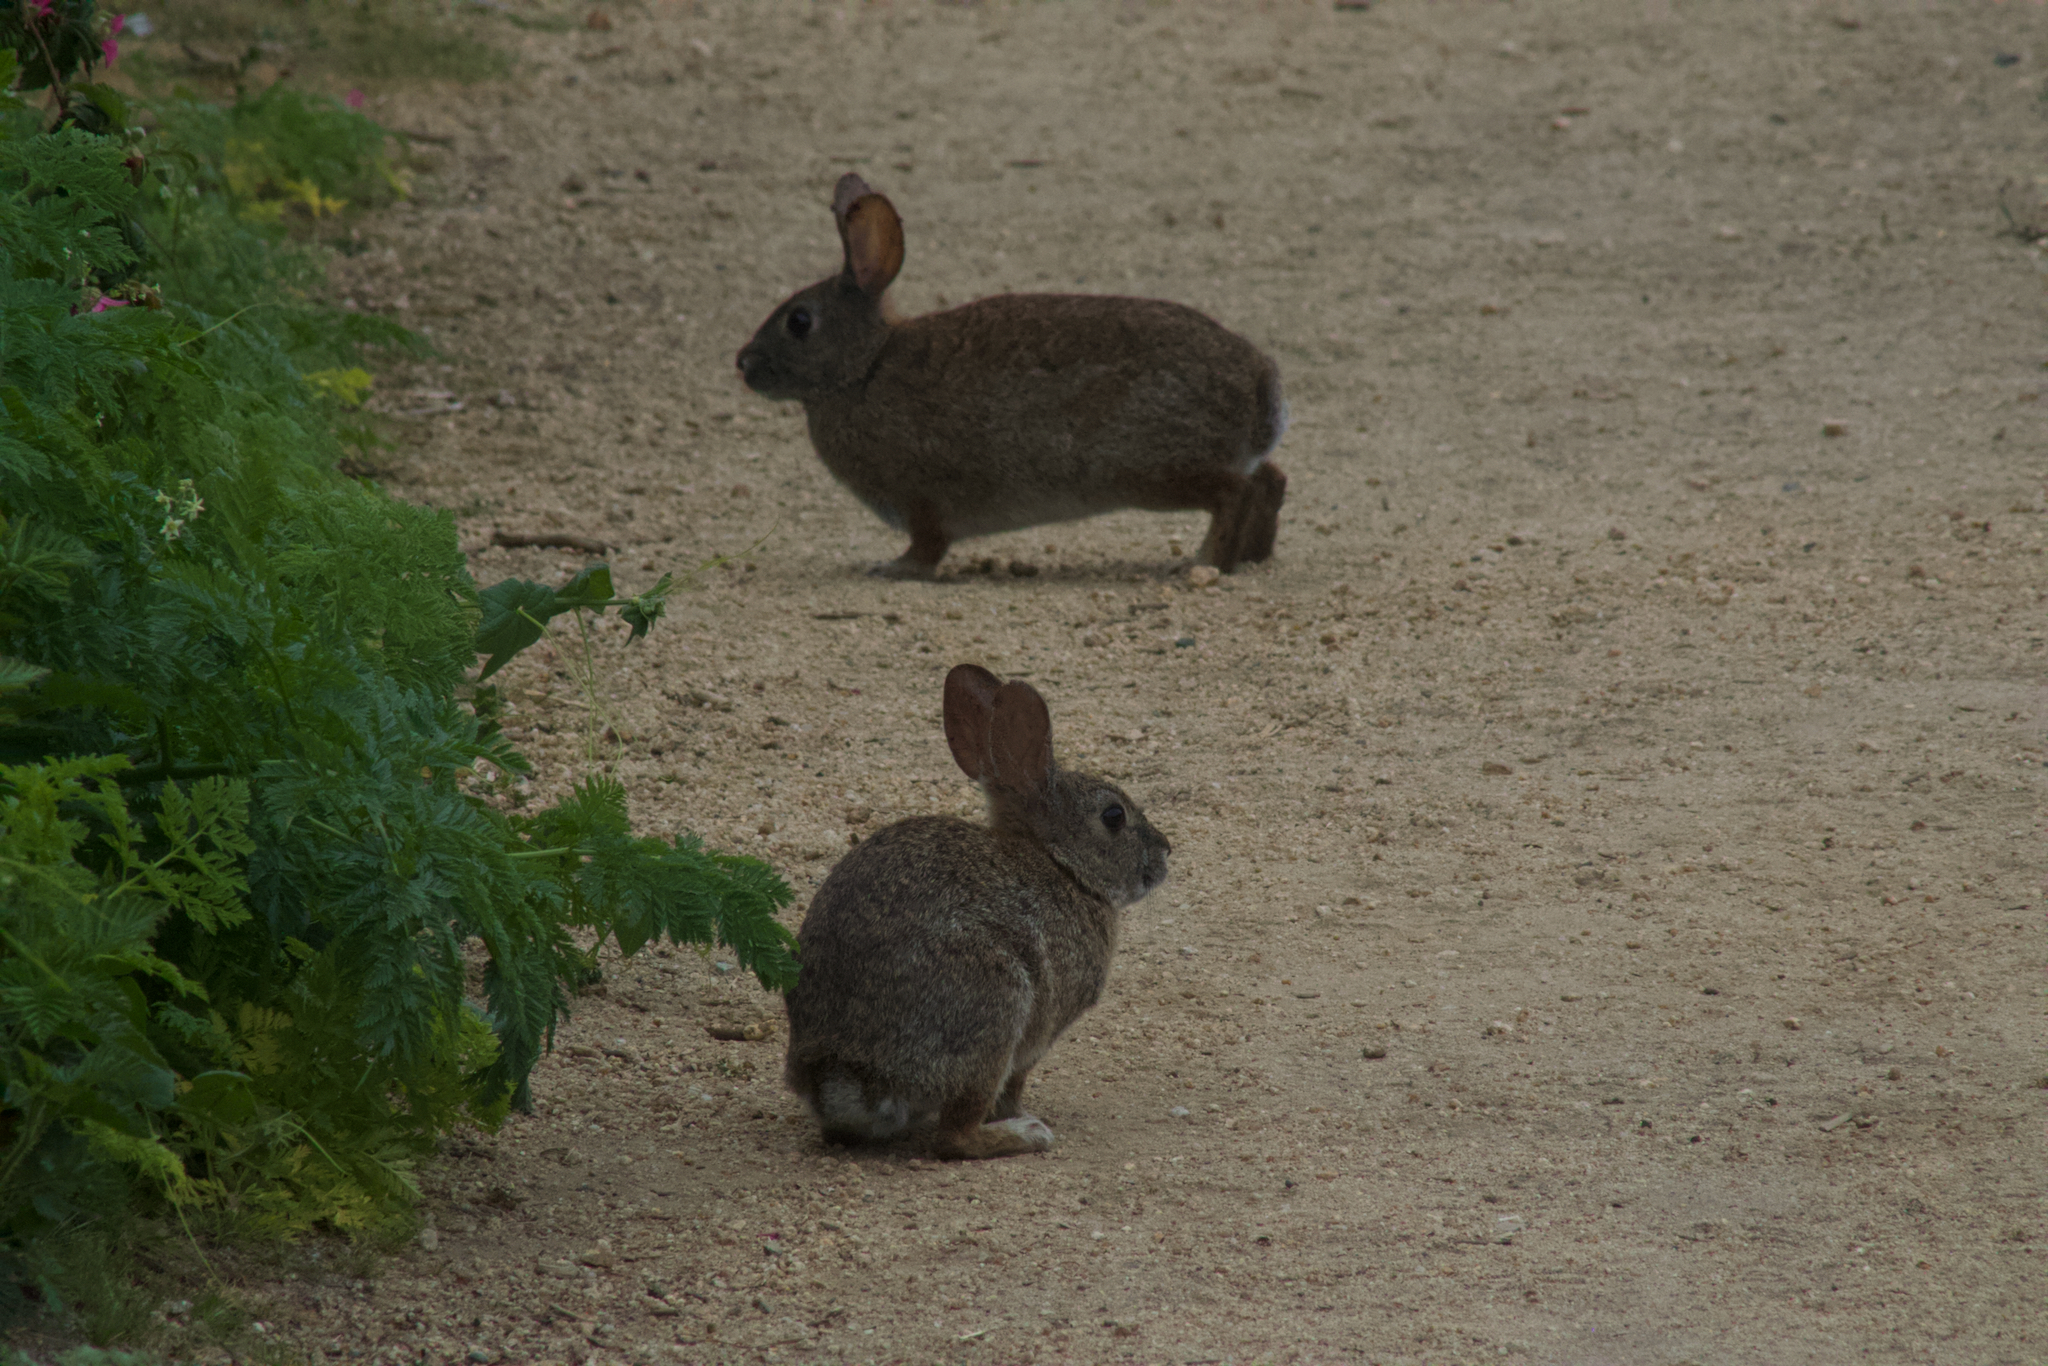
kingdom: Animalia
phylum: Chordata
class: Mammalia
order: Lagomorpha
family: Leporidae
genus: Sylvilagus
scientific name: Sylvilagus bachmani
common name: Brush rabbit
